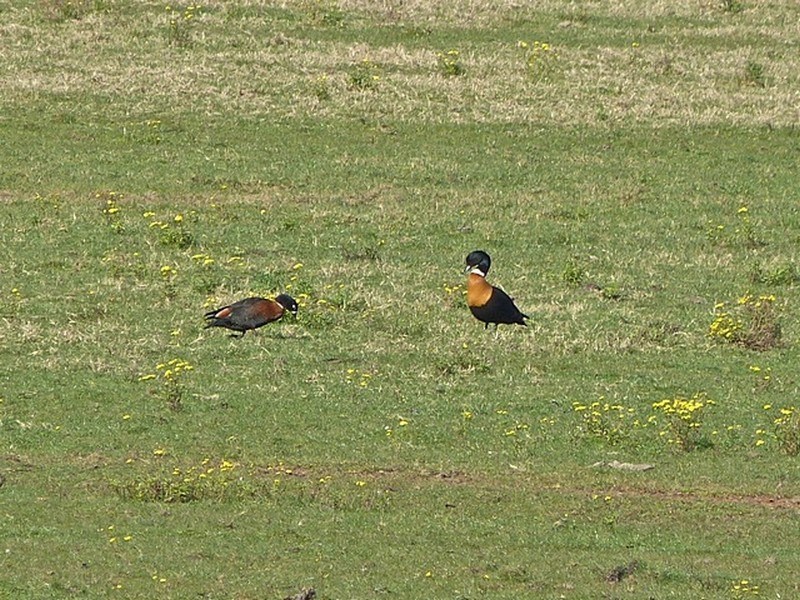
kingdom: Animalia
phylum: Chordata
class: Aves
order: Anseriformes
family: Anatidae
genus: Tadorna
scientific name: Tadorna tadornoides
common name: Australian shelduck
